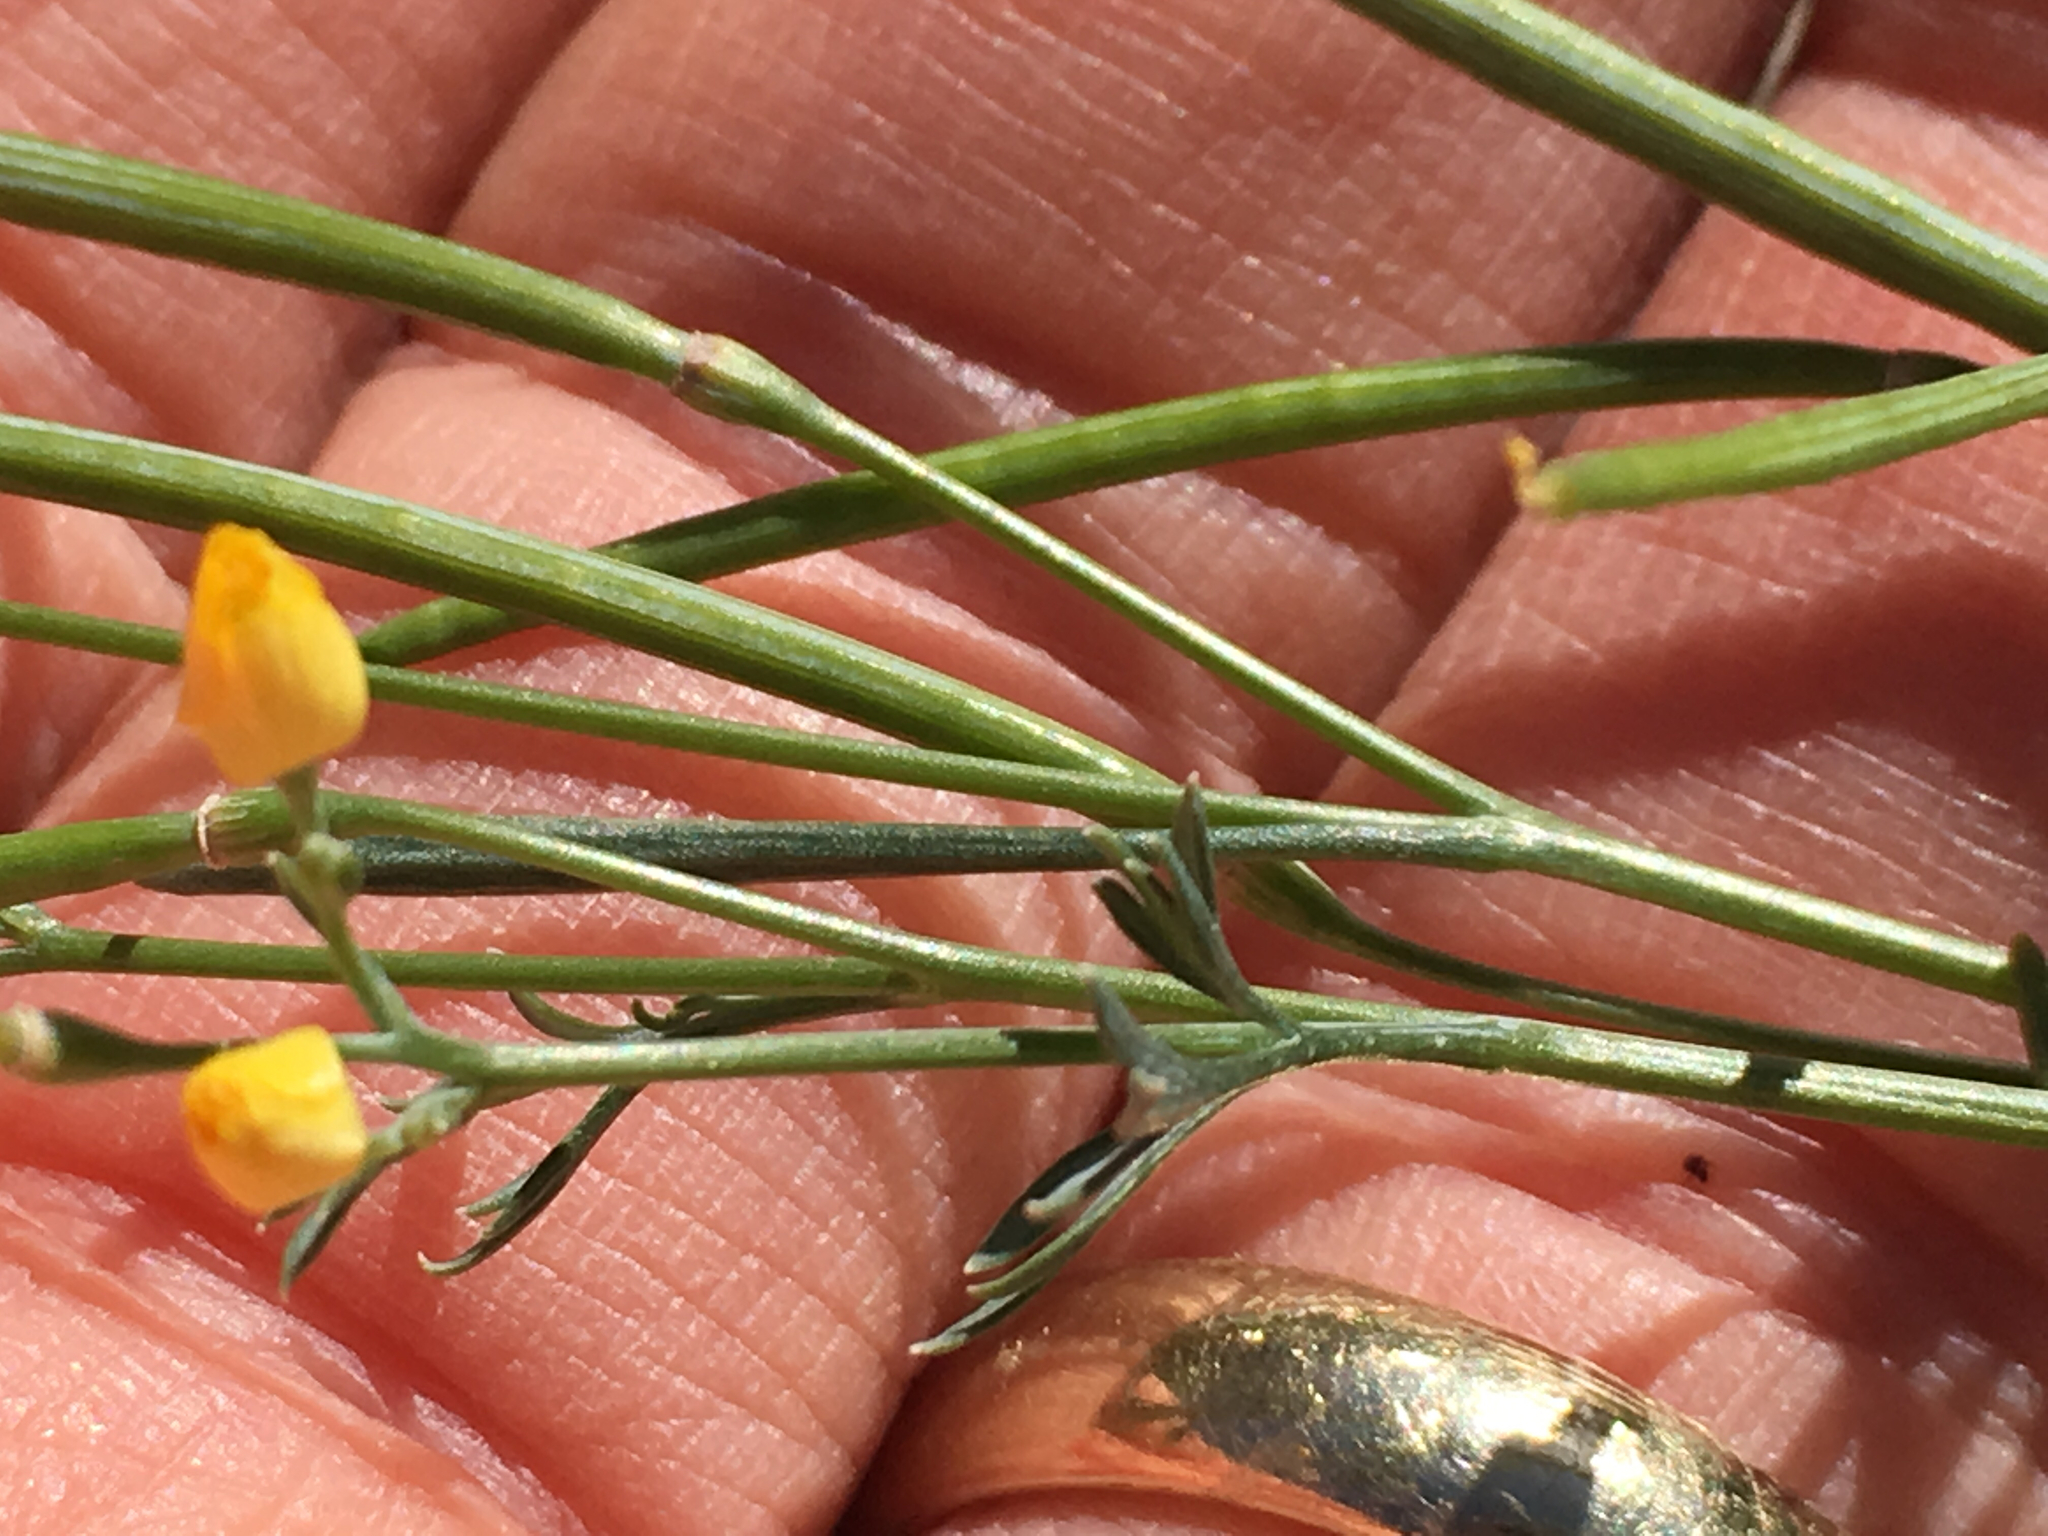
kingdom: Plantae
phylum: Tracheophyta
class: Magnoliopsida
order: Ranunculales
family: Papaveraceae
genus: Eschscholzia
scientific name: Eschscholzia minutiflora
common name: Small-flower california-poppy
